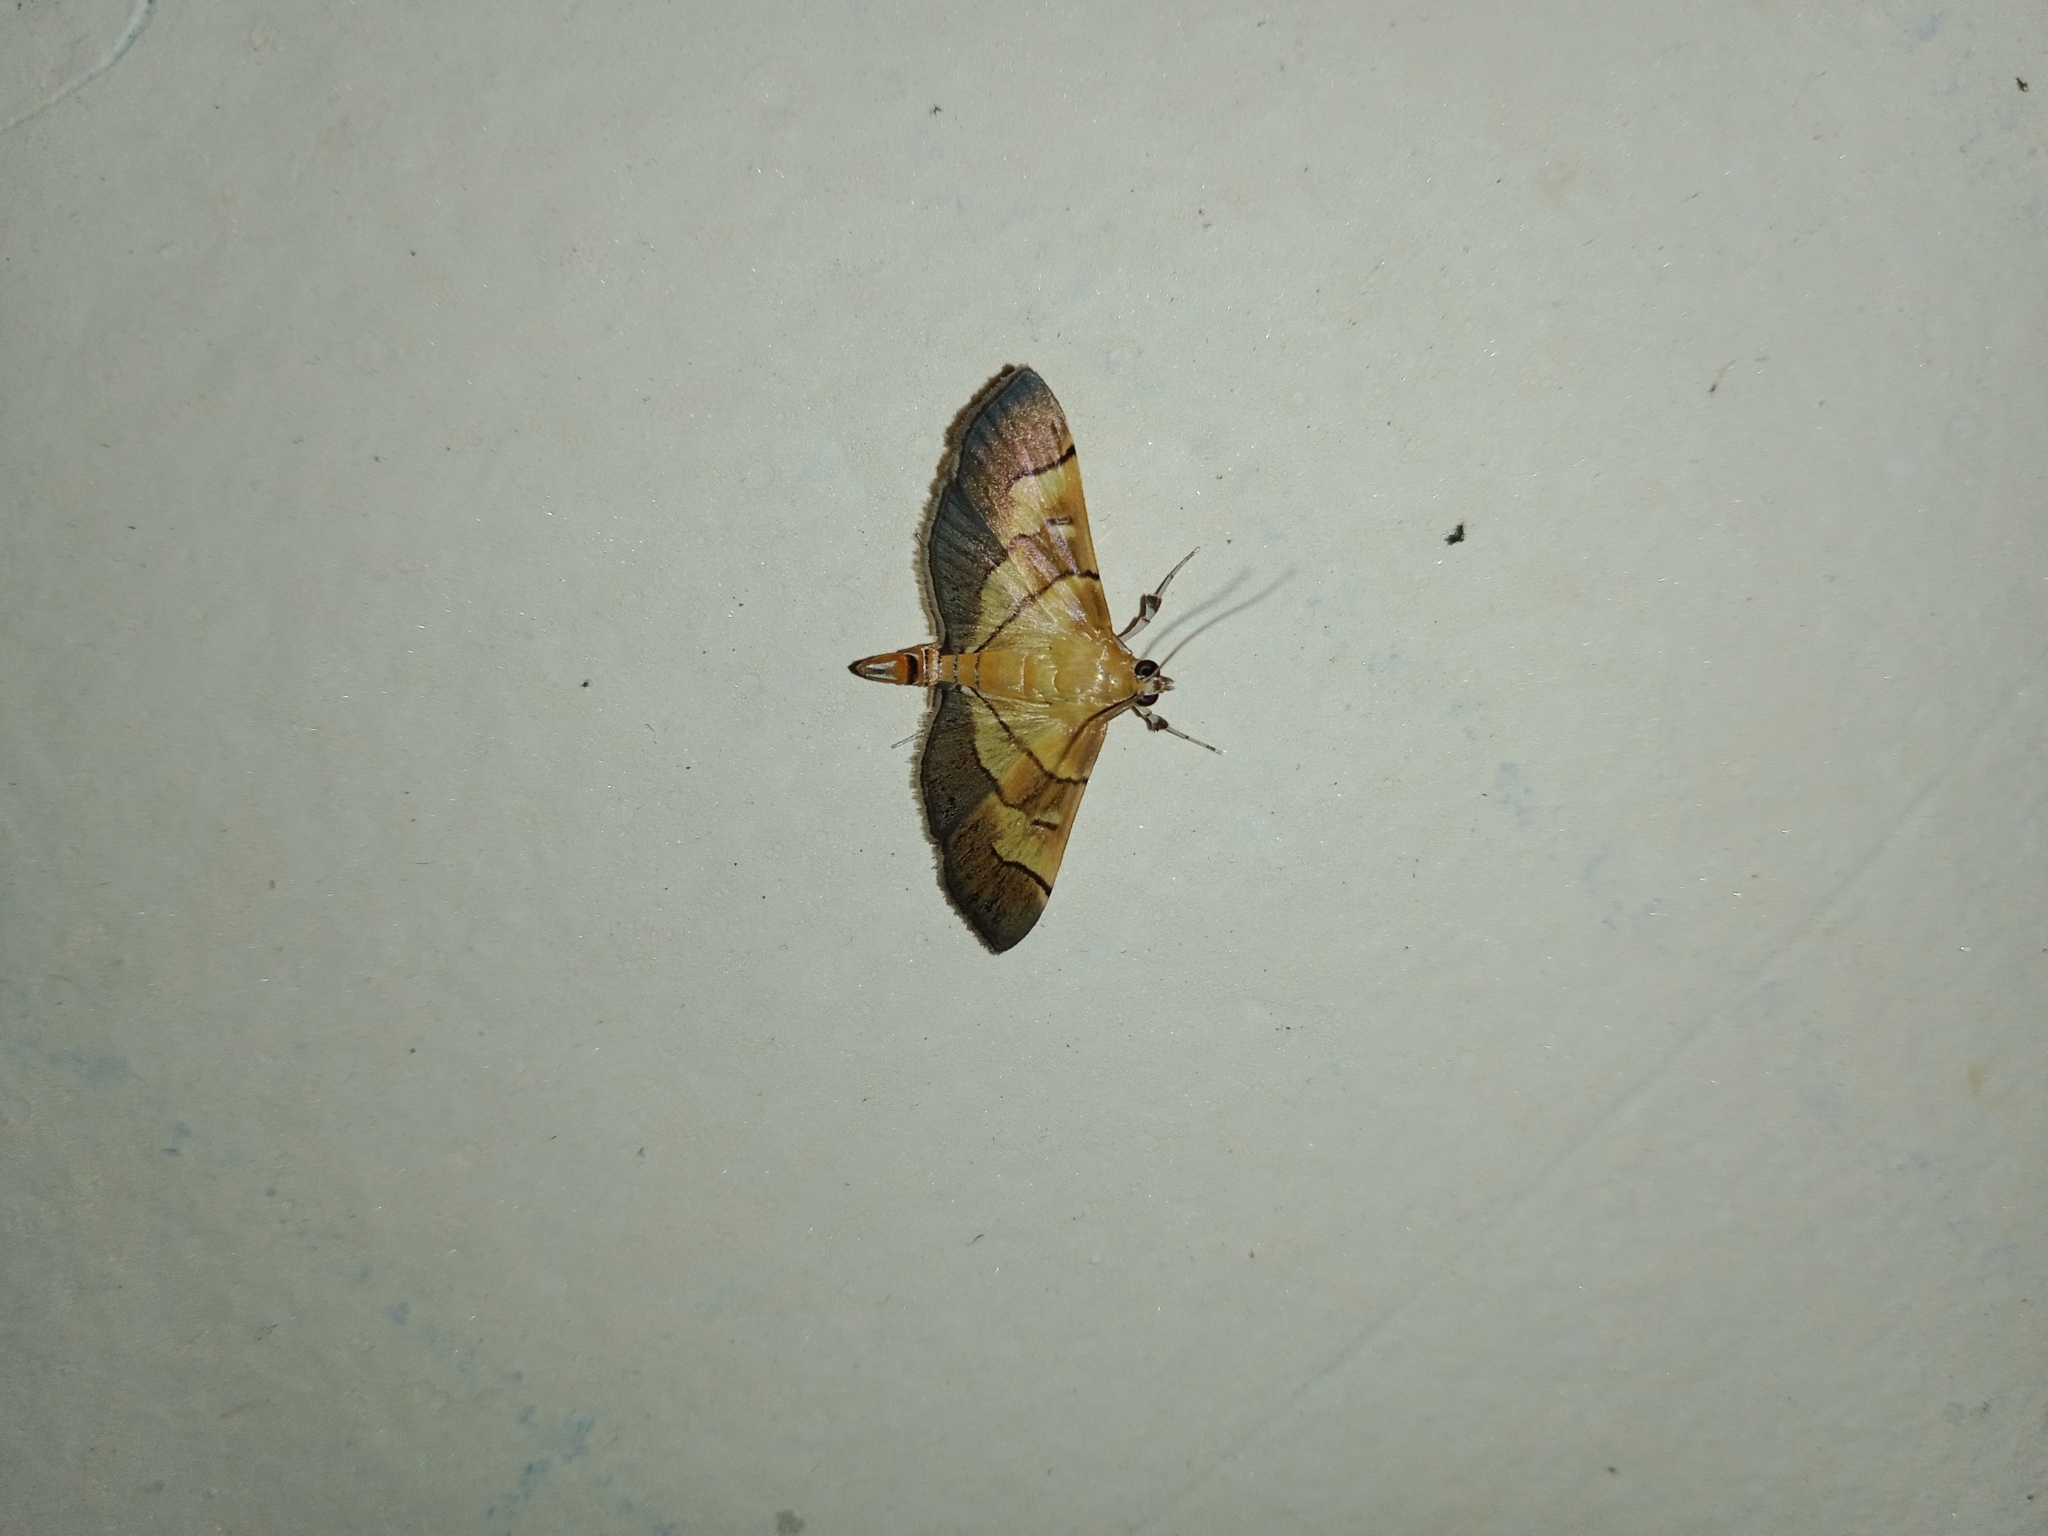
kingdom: Animalia
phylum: Arthropoda
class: Insecta
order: Lepidoptera
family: Crambidae
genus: Syngamia
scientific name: Syngamia latimarginalis
